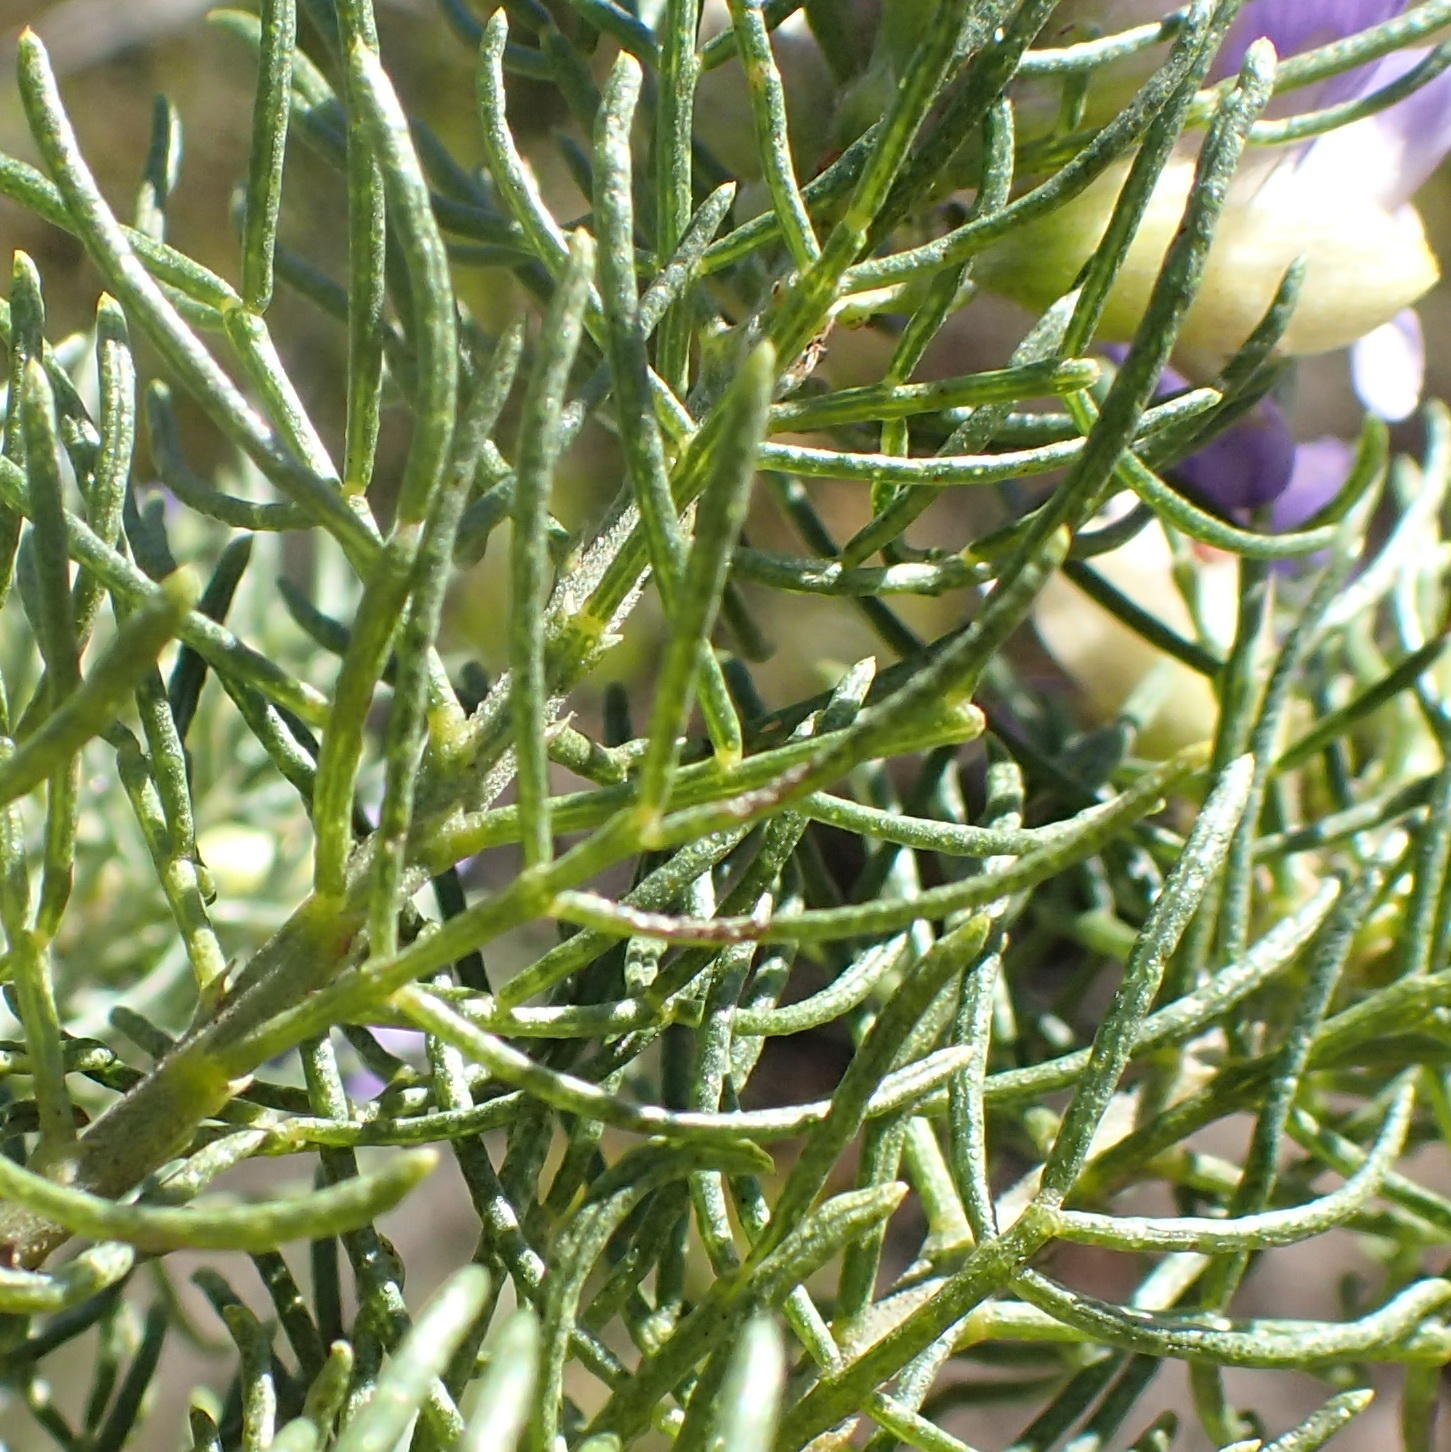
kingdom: Plantae
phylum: Tracheophyta
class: Magnoliopsida
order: Fabales
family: Fabaceae
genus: Psoralea
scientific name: Psoralea speciosa
